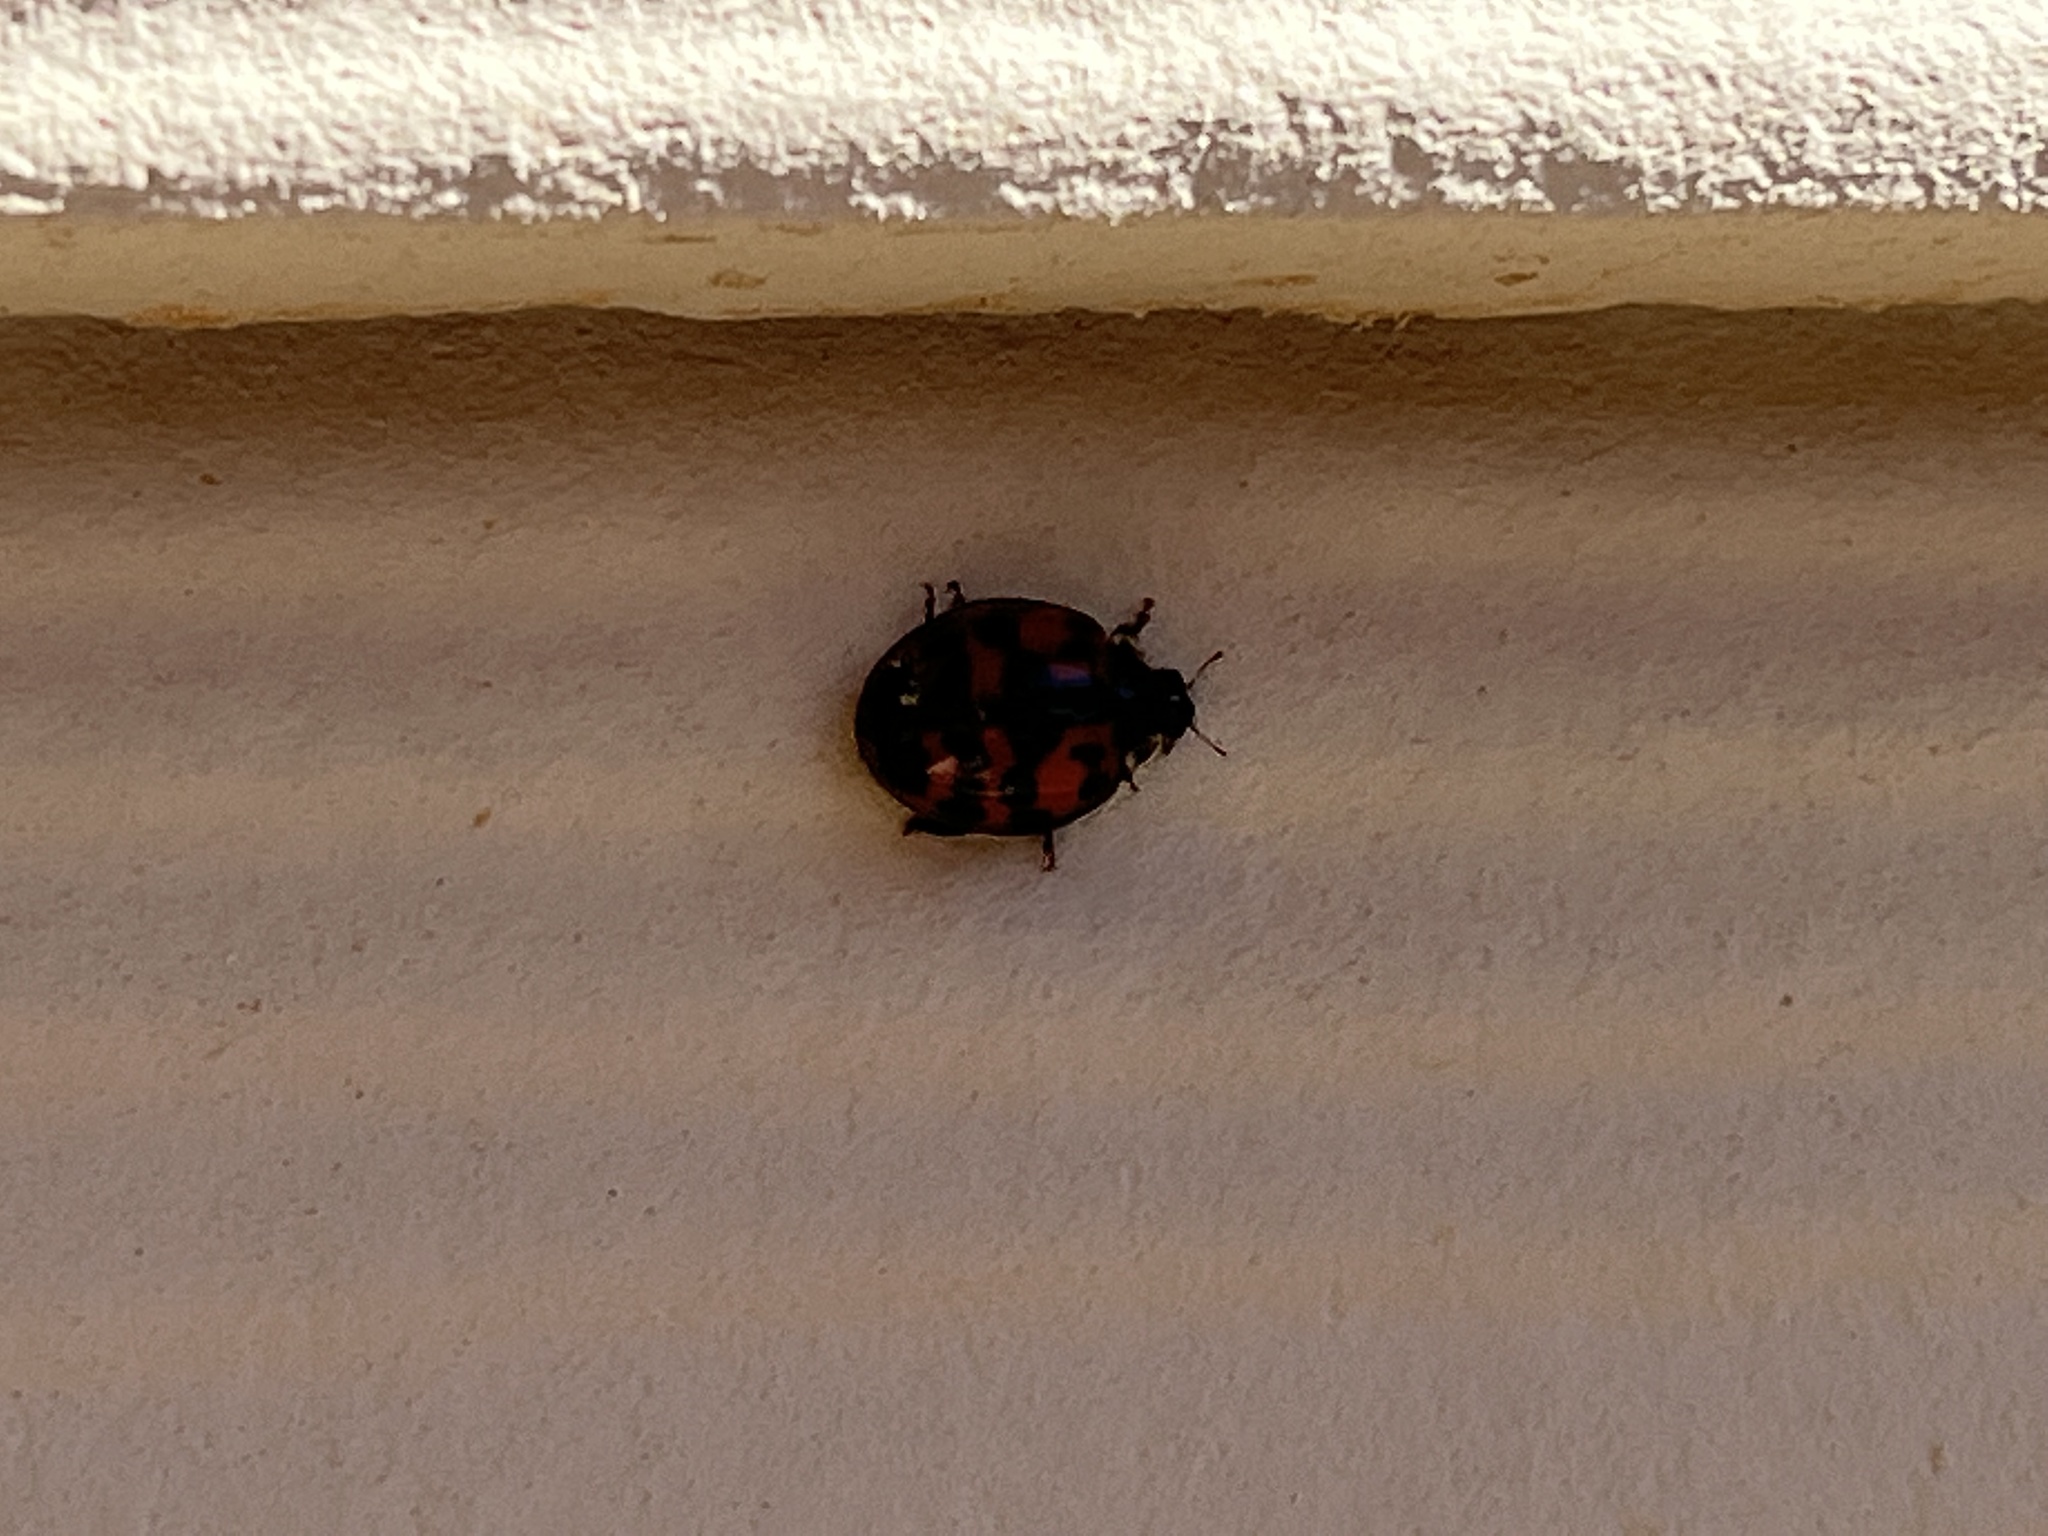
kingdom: Animalia
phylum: Arthropoda
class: Insecta
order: Coleoptera
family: Coccinellidae
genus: Harmonia
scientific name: Harmonia axyridis
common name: Harlequin ladybird
